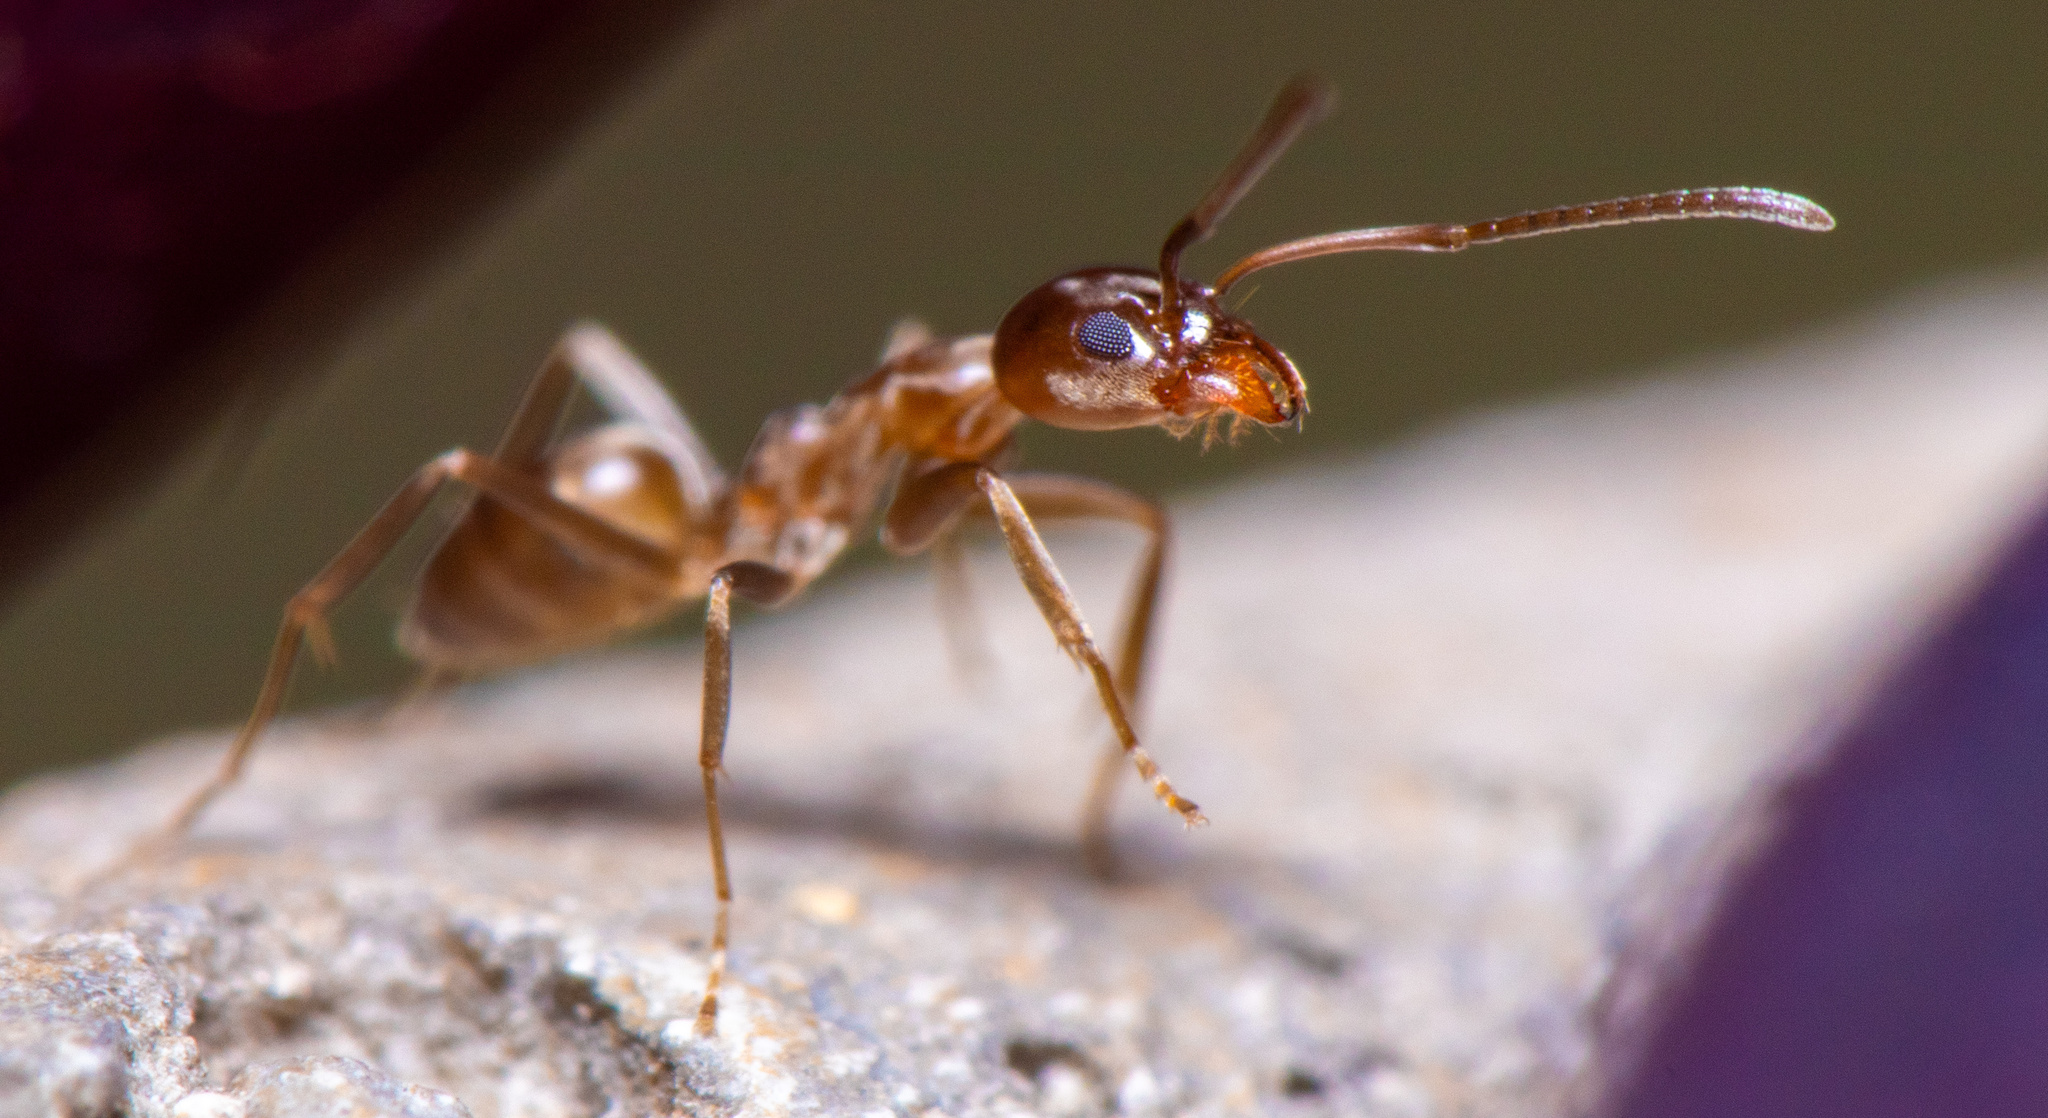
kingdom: Animalia
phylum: Arthropoda
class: Insecta
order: Hymenoptera
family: Formicidae
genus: Linepithema
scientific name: Linepithema humile
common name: Argentine ant
